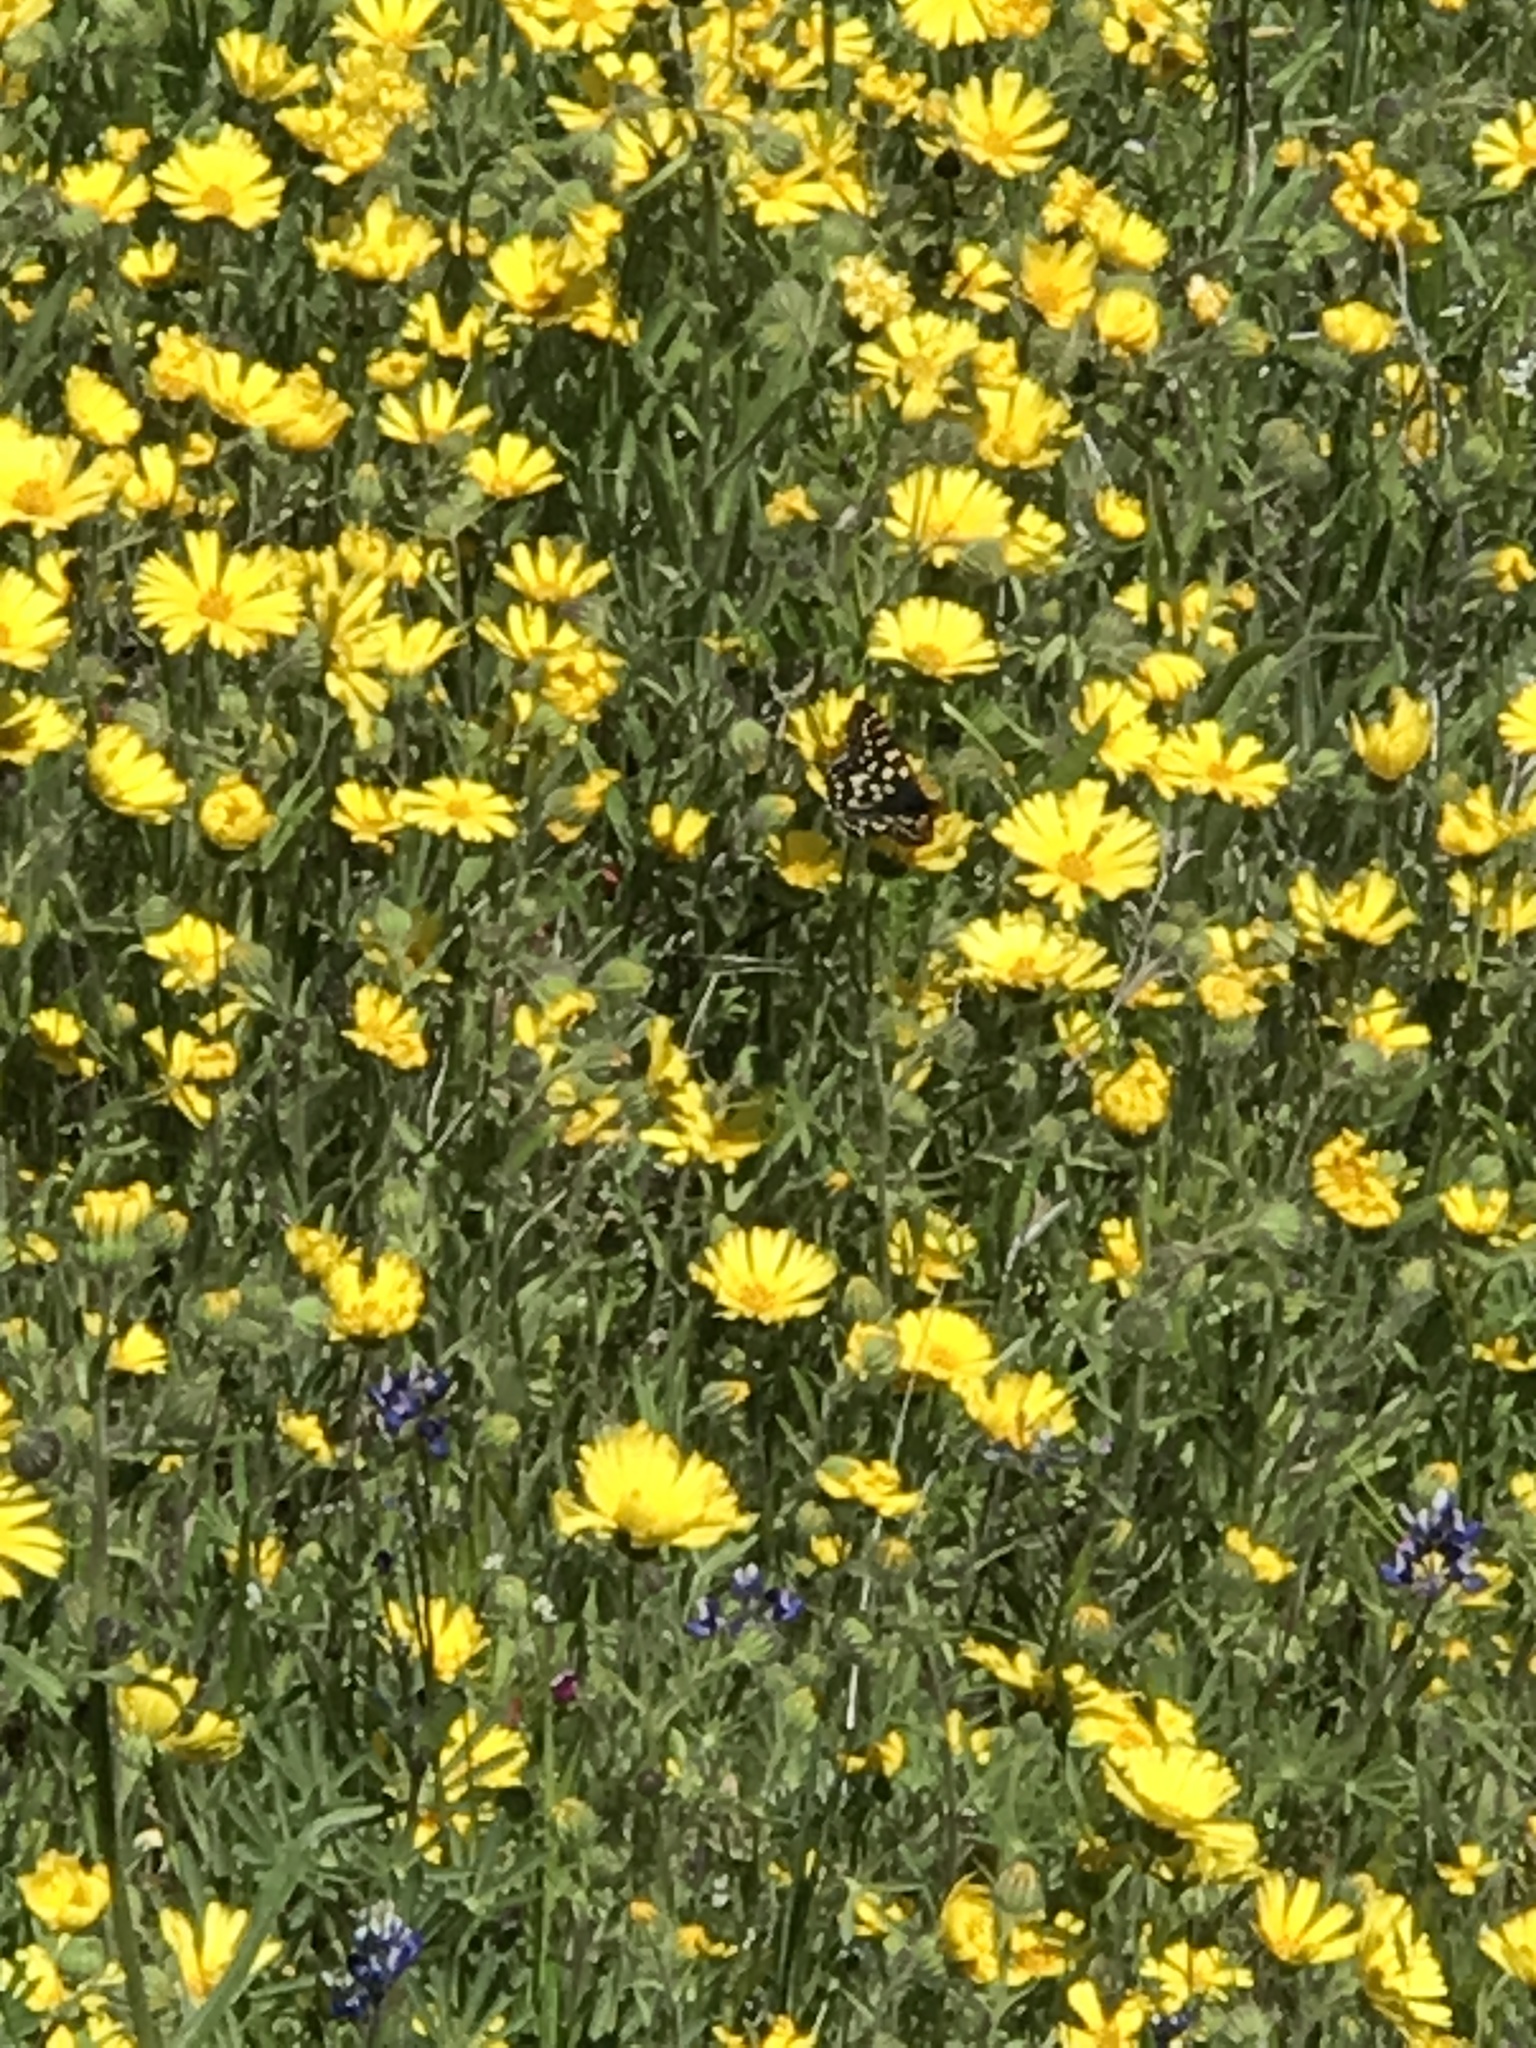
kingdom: Animalia
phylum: Arthropoda
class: Insecta
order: Lepidoptera
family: Nymphalidae
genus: Occidryas
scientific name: Occidryas chalcedona
